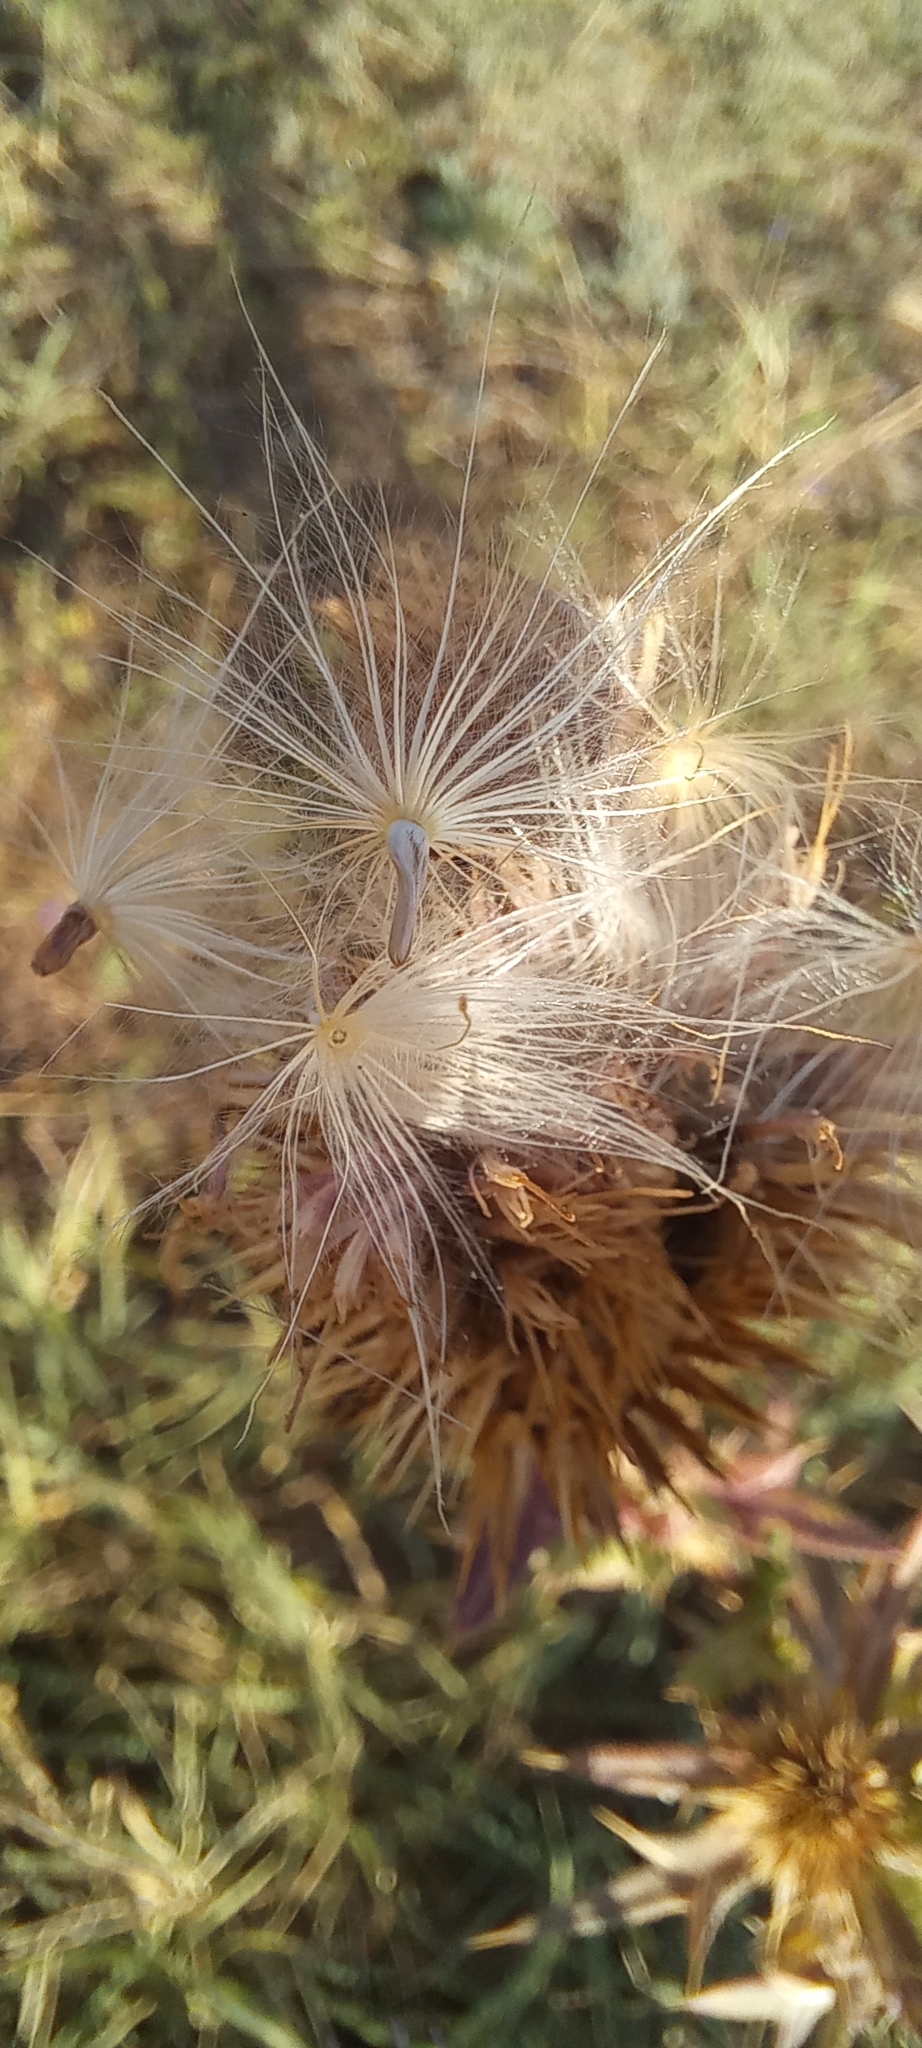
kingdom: Plantae
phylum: Tracheophyta
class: Magnoliopsida
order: Asterales
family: Asteraceae
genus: Cirsium
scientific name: Cirsium serrulatum
